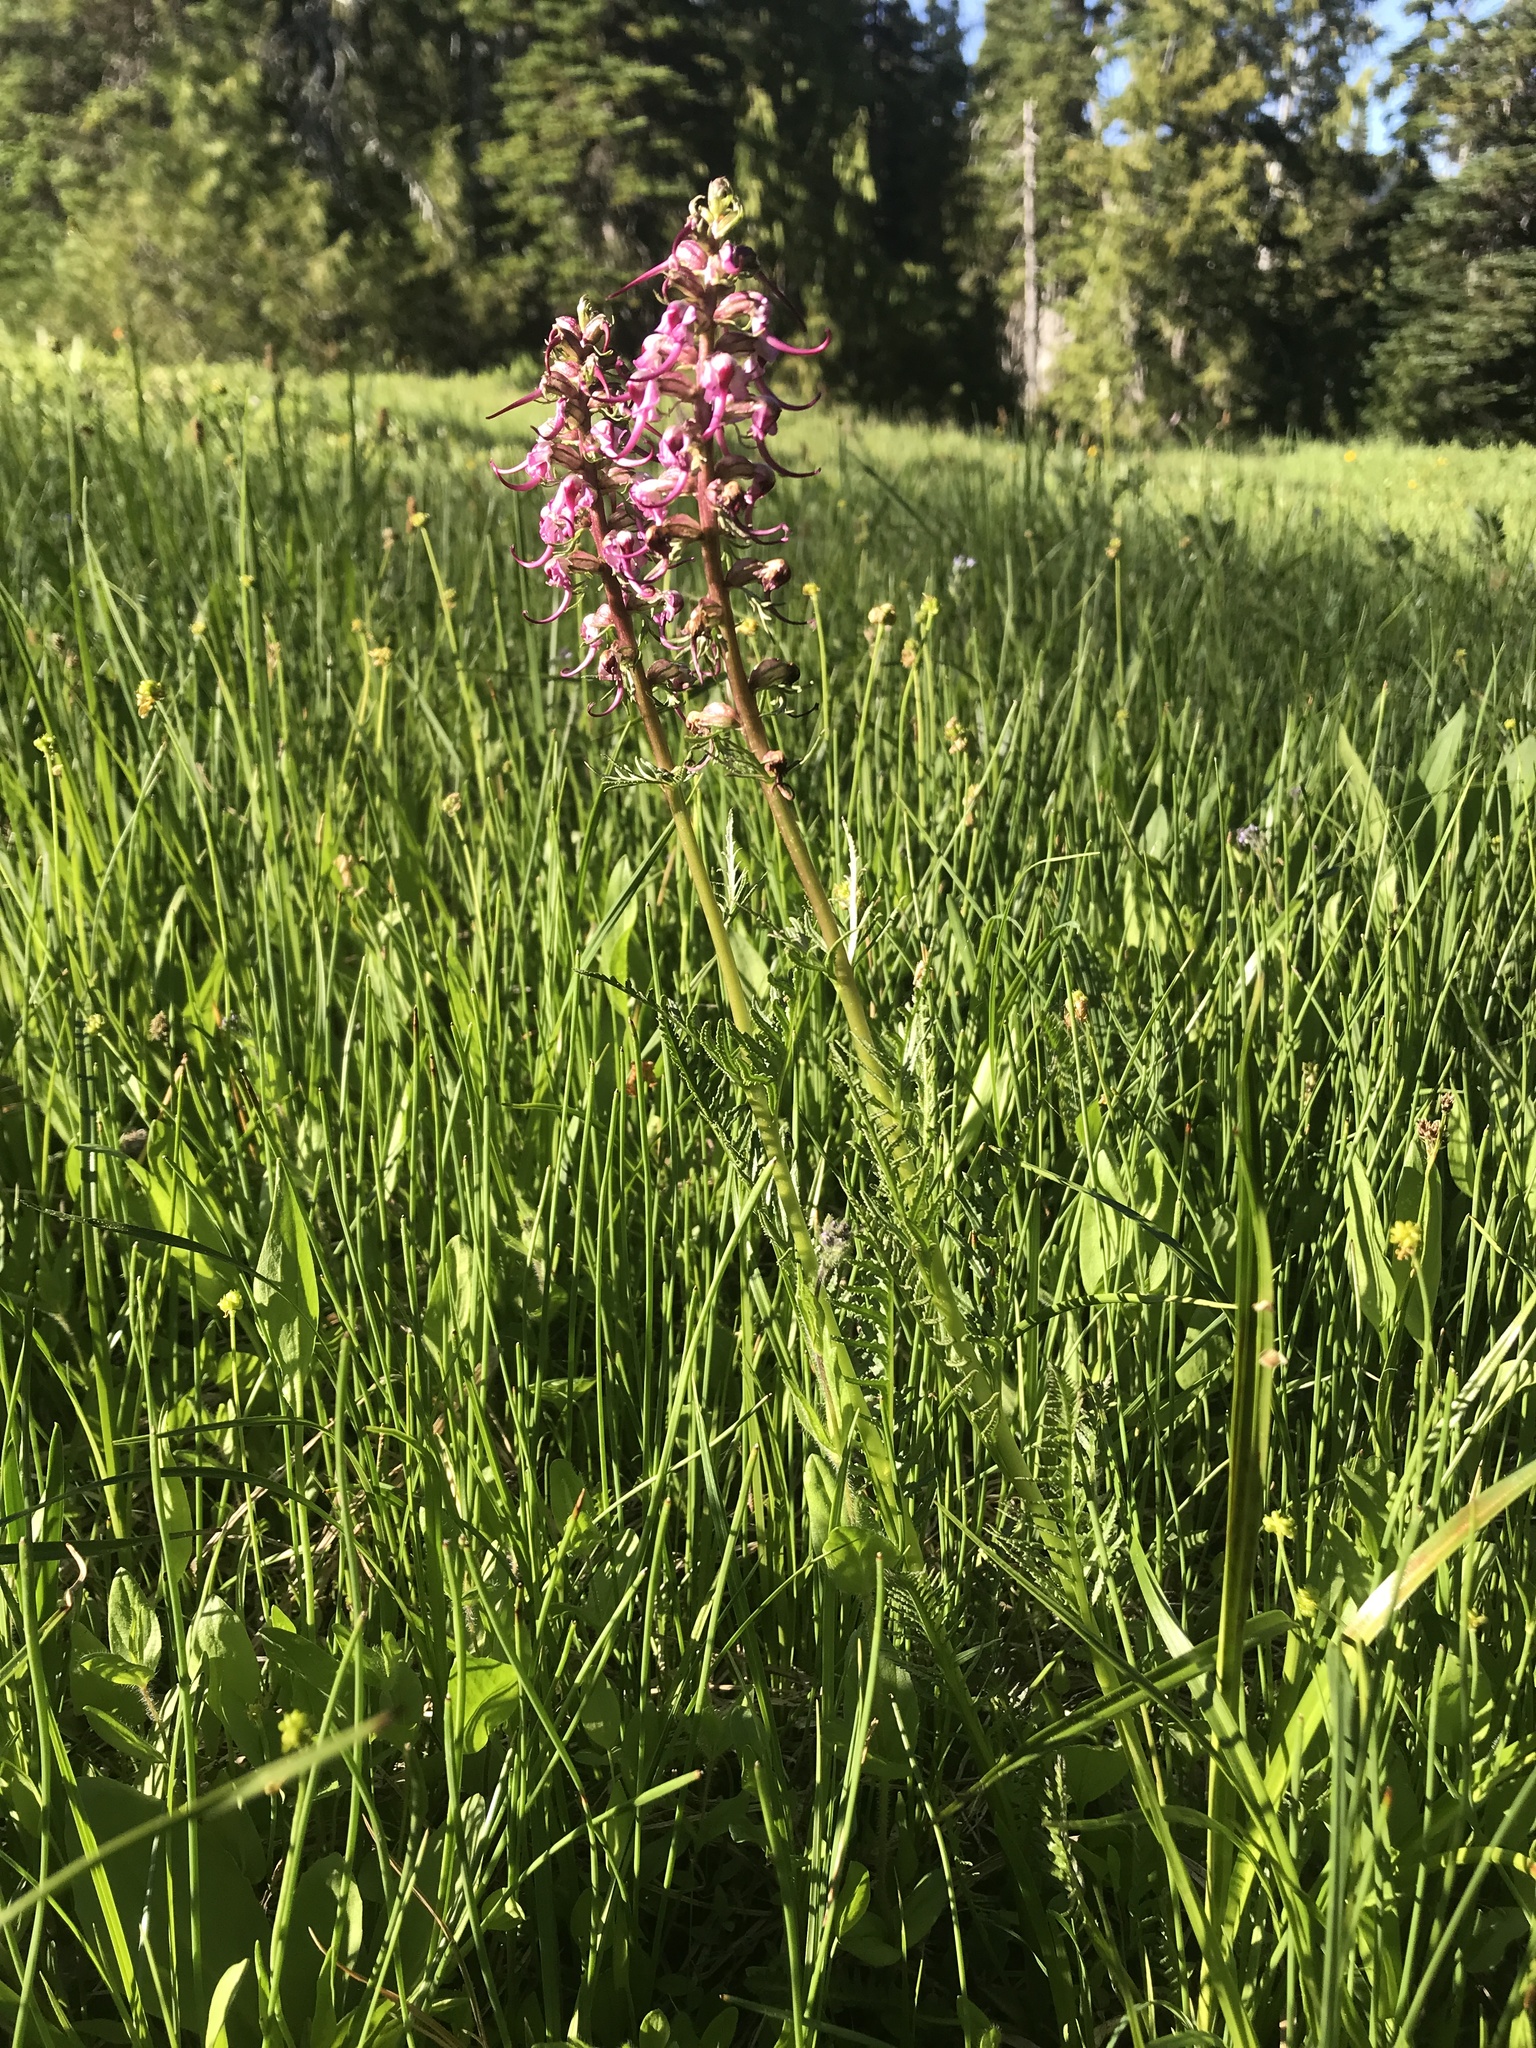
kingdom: Plantae
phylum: Tracheophyta
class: Magnoliopsida
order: Lamiales
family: Orobanchaceae
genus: Pedicularis
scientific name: Pedicularis groenlandica
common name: Elephant's-head
